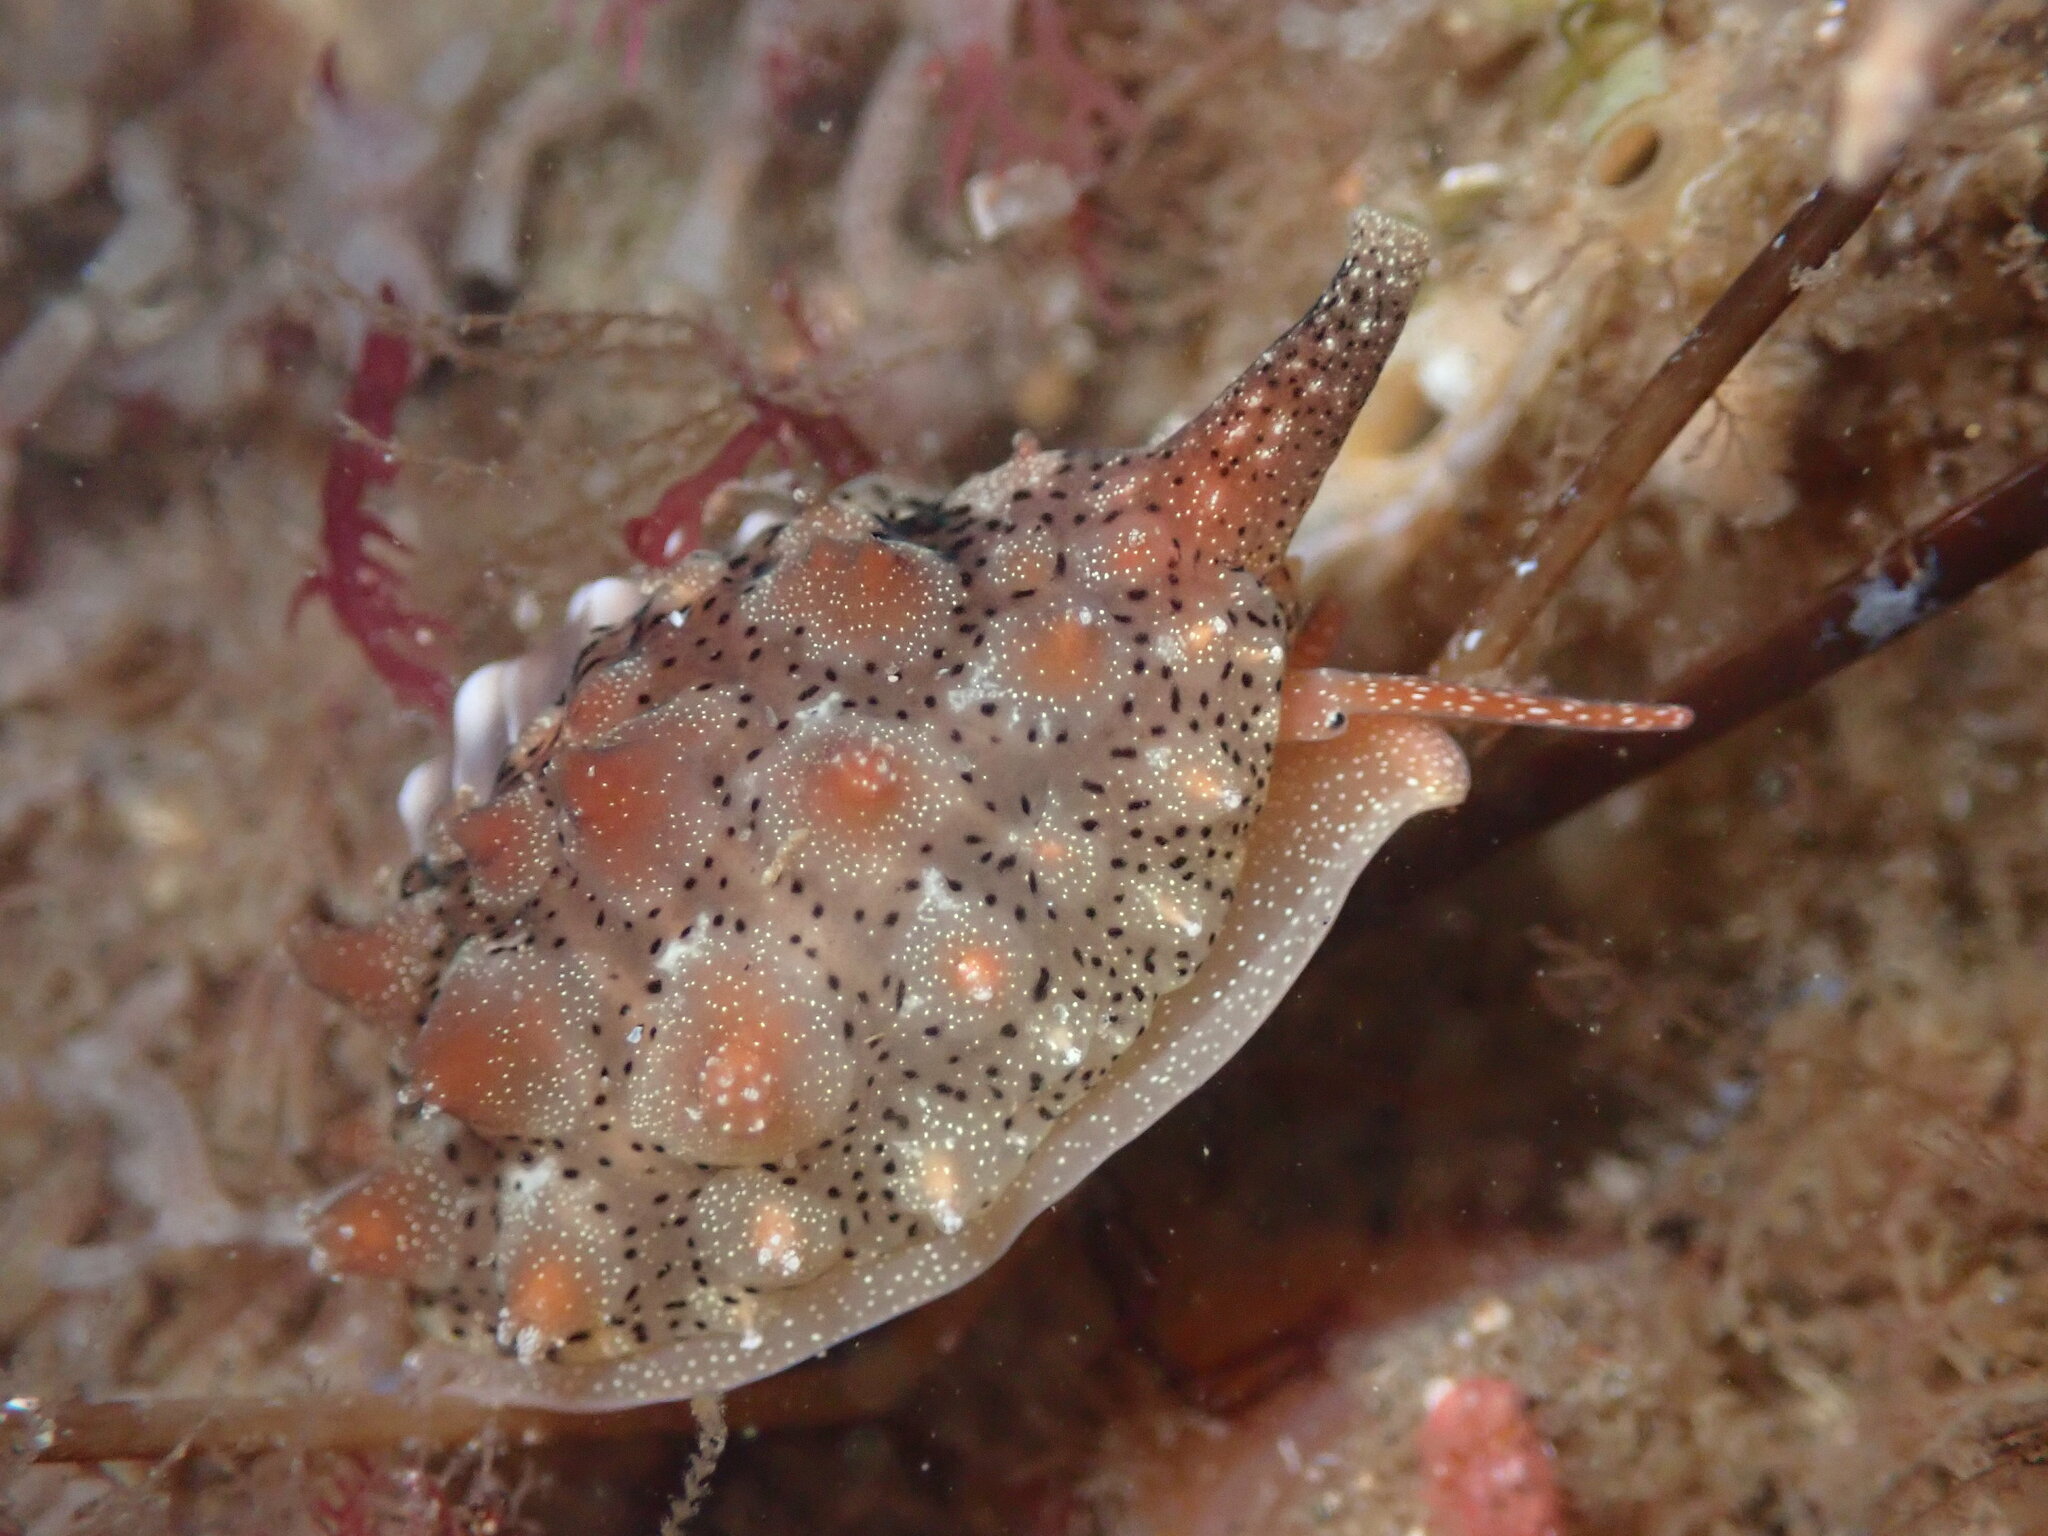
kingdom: Animalia
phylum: Mollusca
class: Gastropoda
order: Littorinimorpha
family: Triviidae
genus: Pusula
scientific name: Pusula solandri
